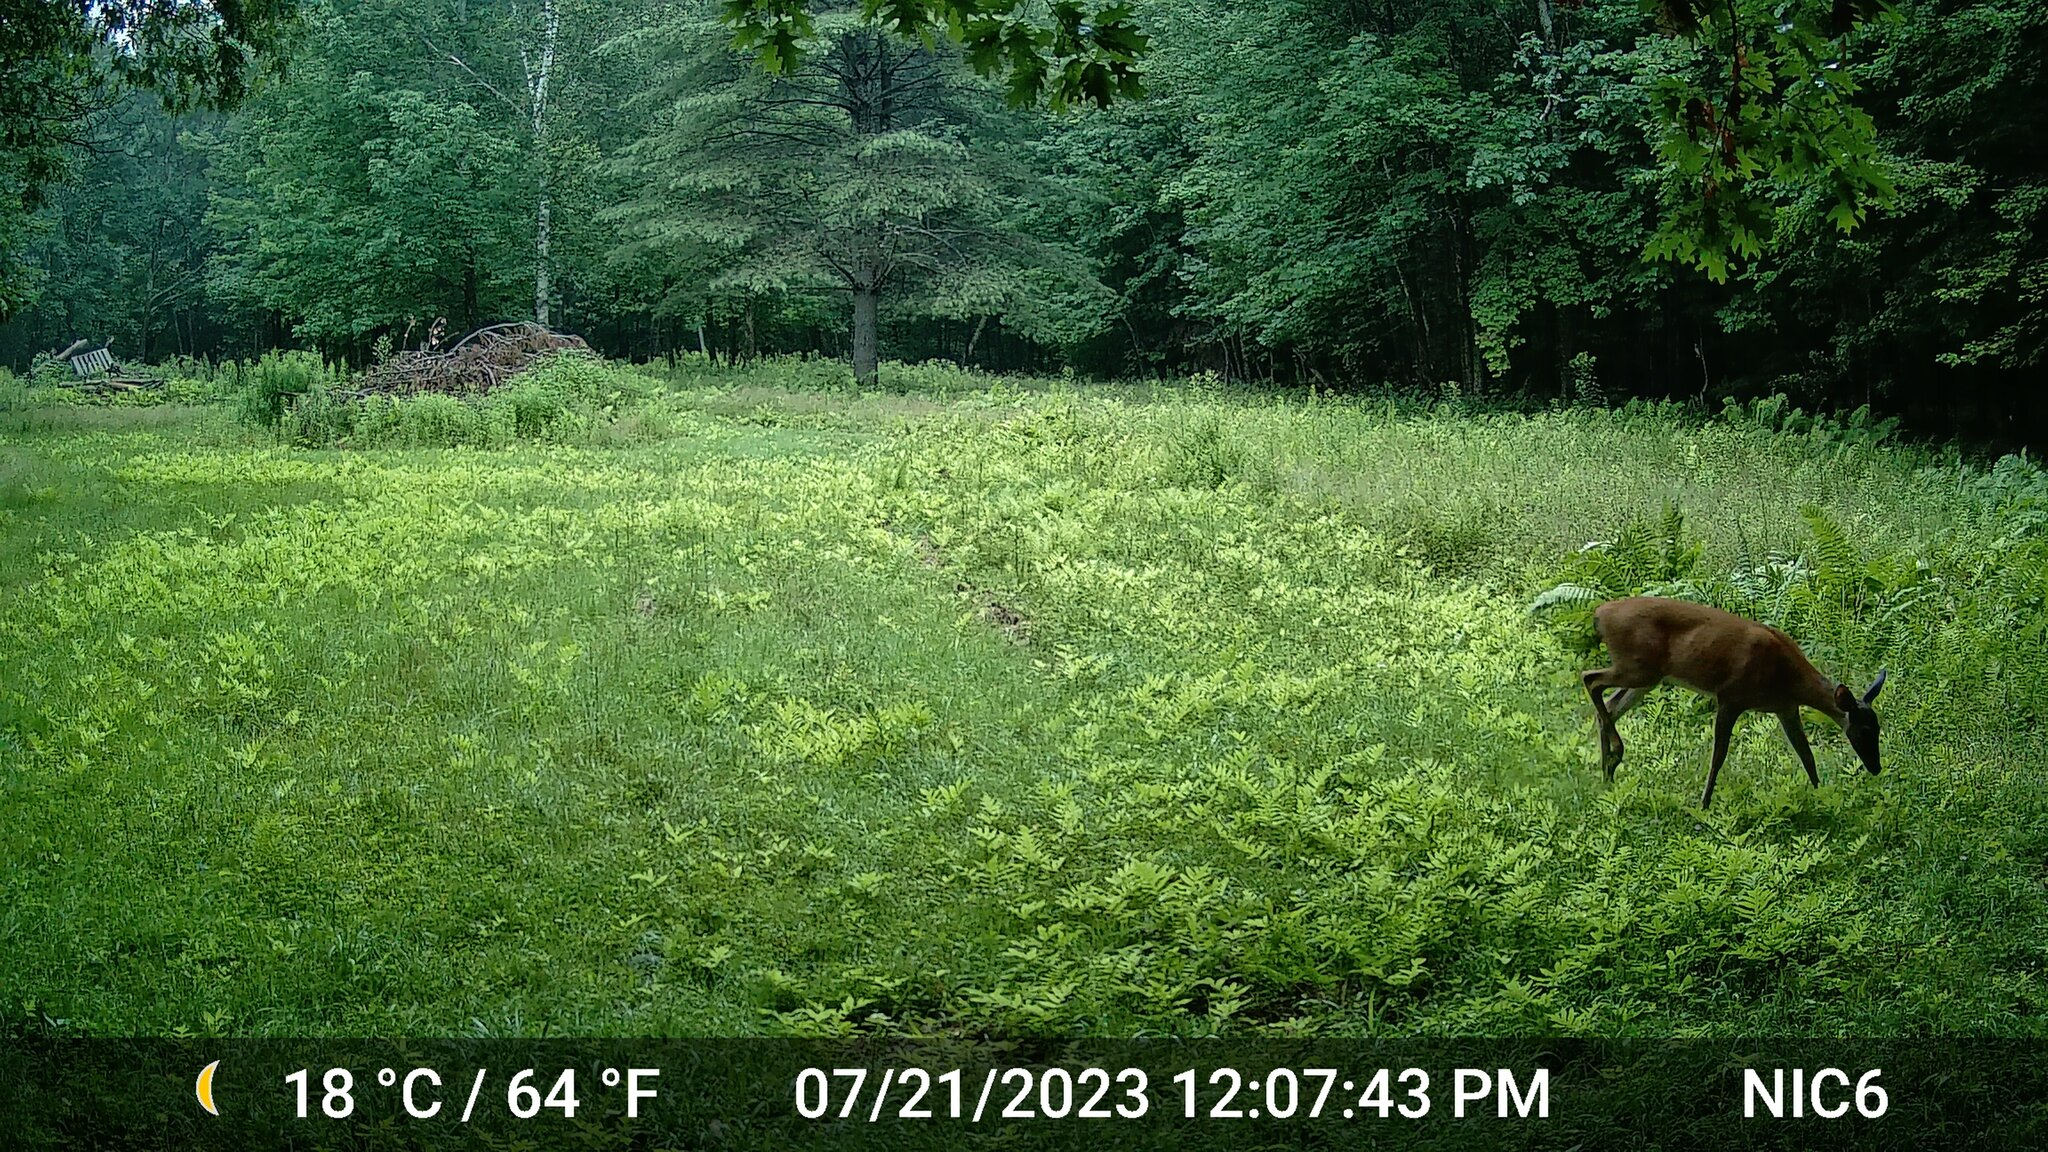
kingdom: Animalia
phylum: Chordata
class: Mammalia
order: Artiodactyla
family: Cervidae
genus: Odocoileus
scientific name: Odocoileus virginianus
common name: White-tailed deer
